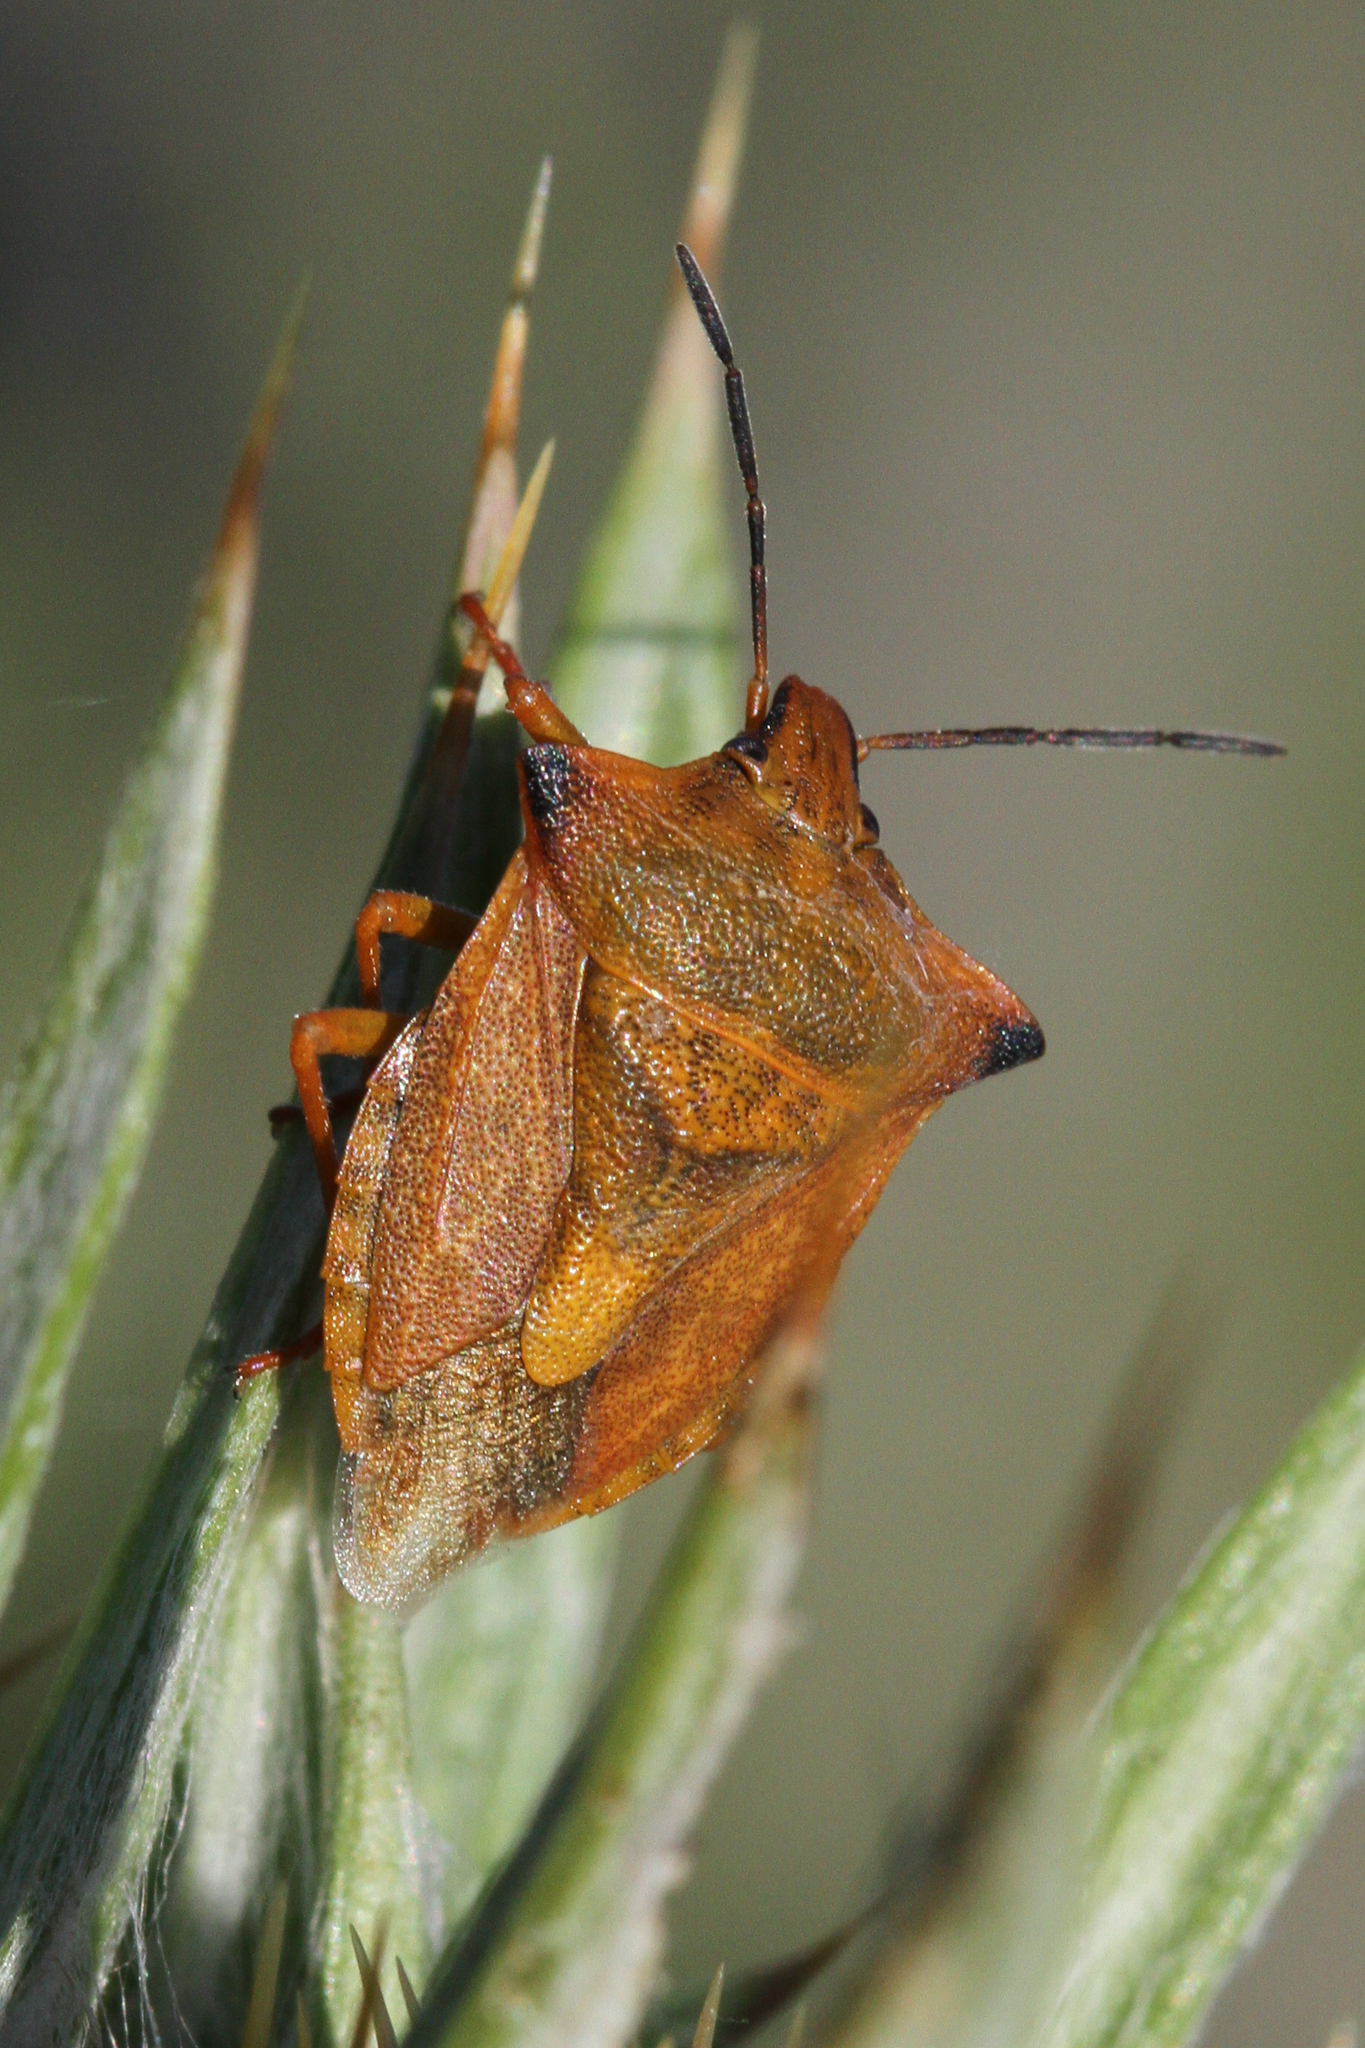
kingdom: Animalia
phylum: Arthropoda
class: Insecta
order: Hemiptera
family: Pentatomidae
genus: Carpocoris
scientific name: Carpocoris mediterraneus
